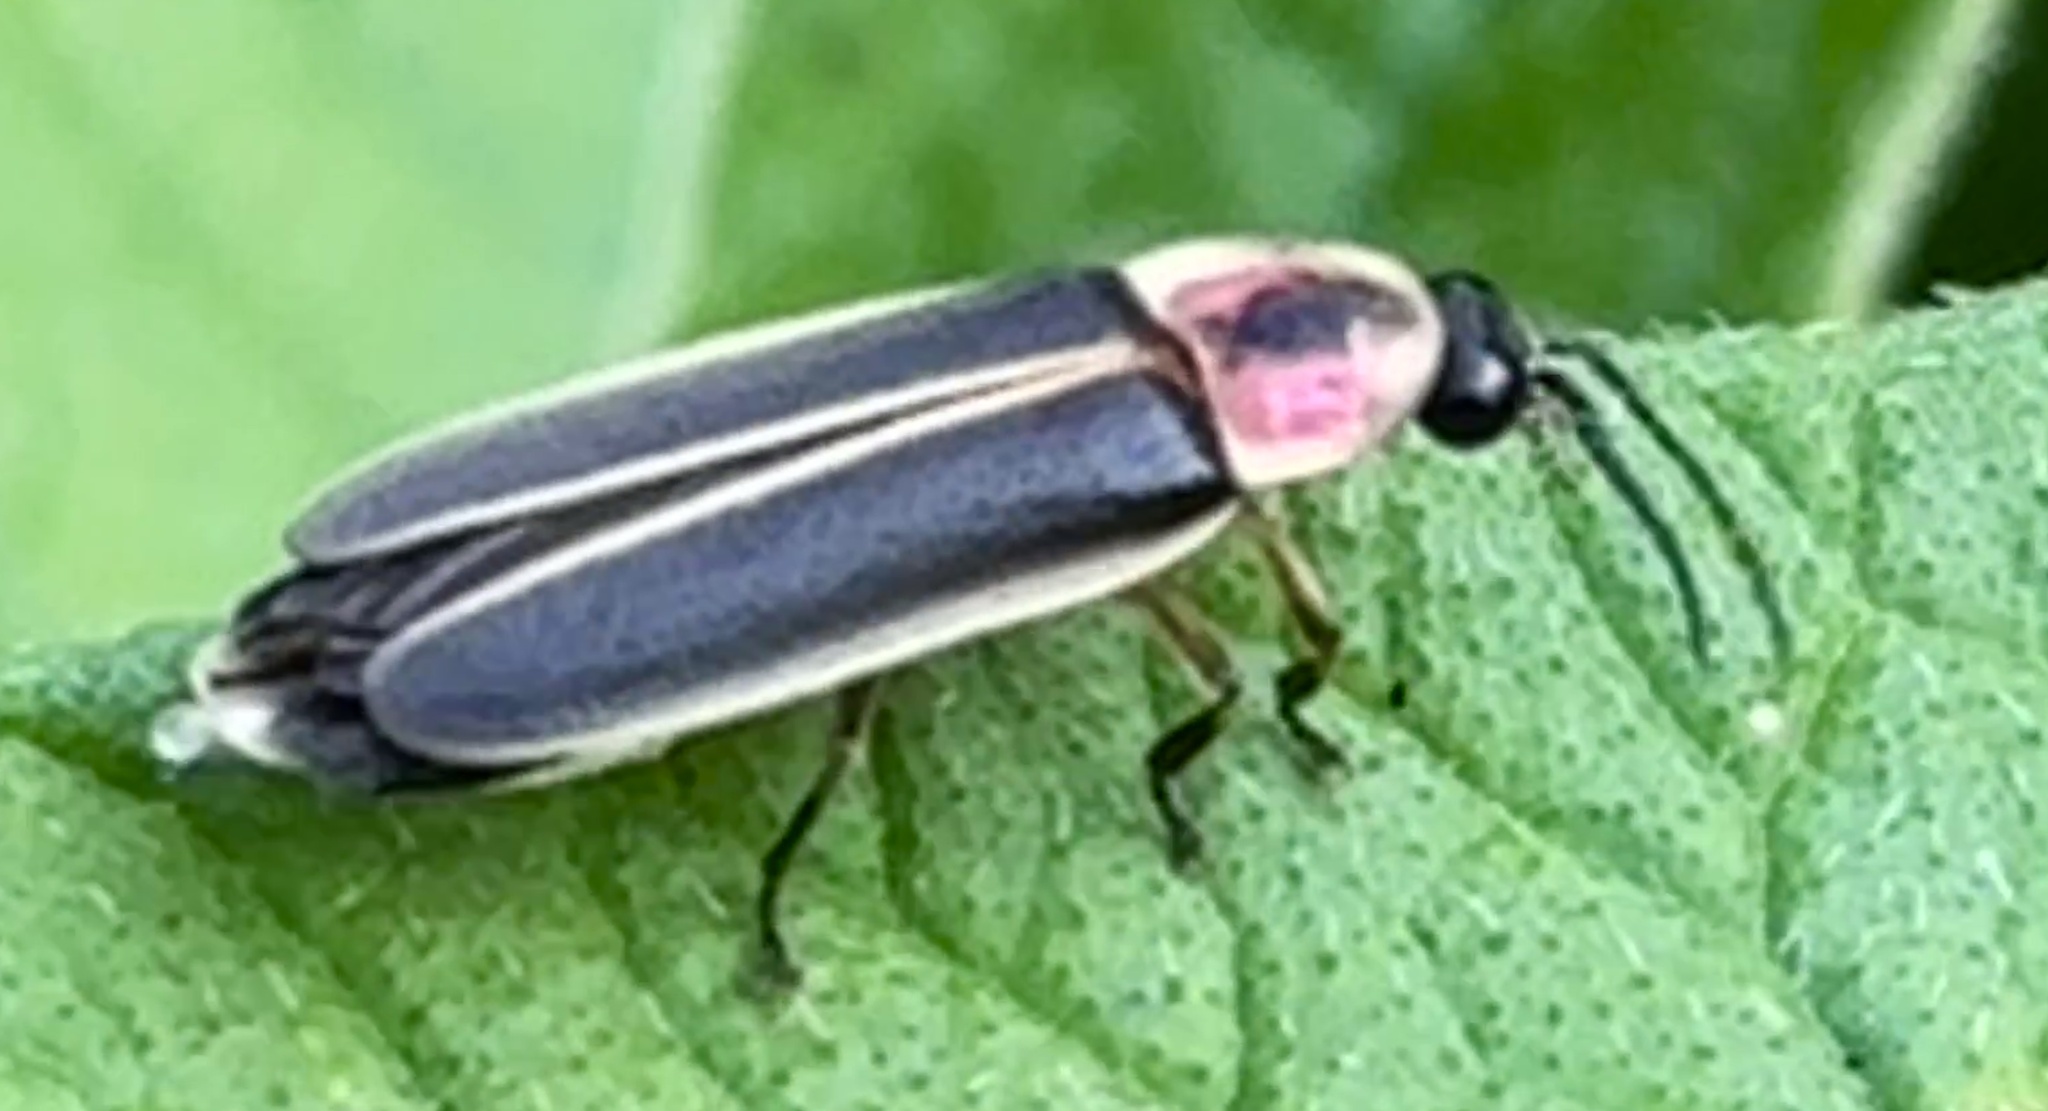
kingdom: Animalia
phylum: Arthropoda
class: Insecta
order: Coleoptera
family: Lampyridae
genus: Photinus
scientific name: Photinus pyralis
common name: Big dipper firefly
